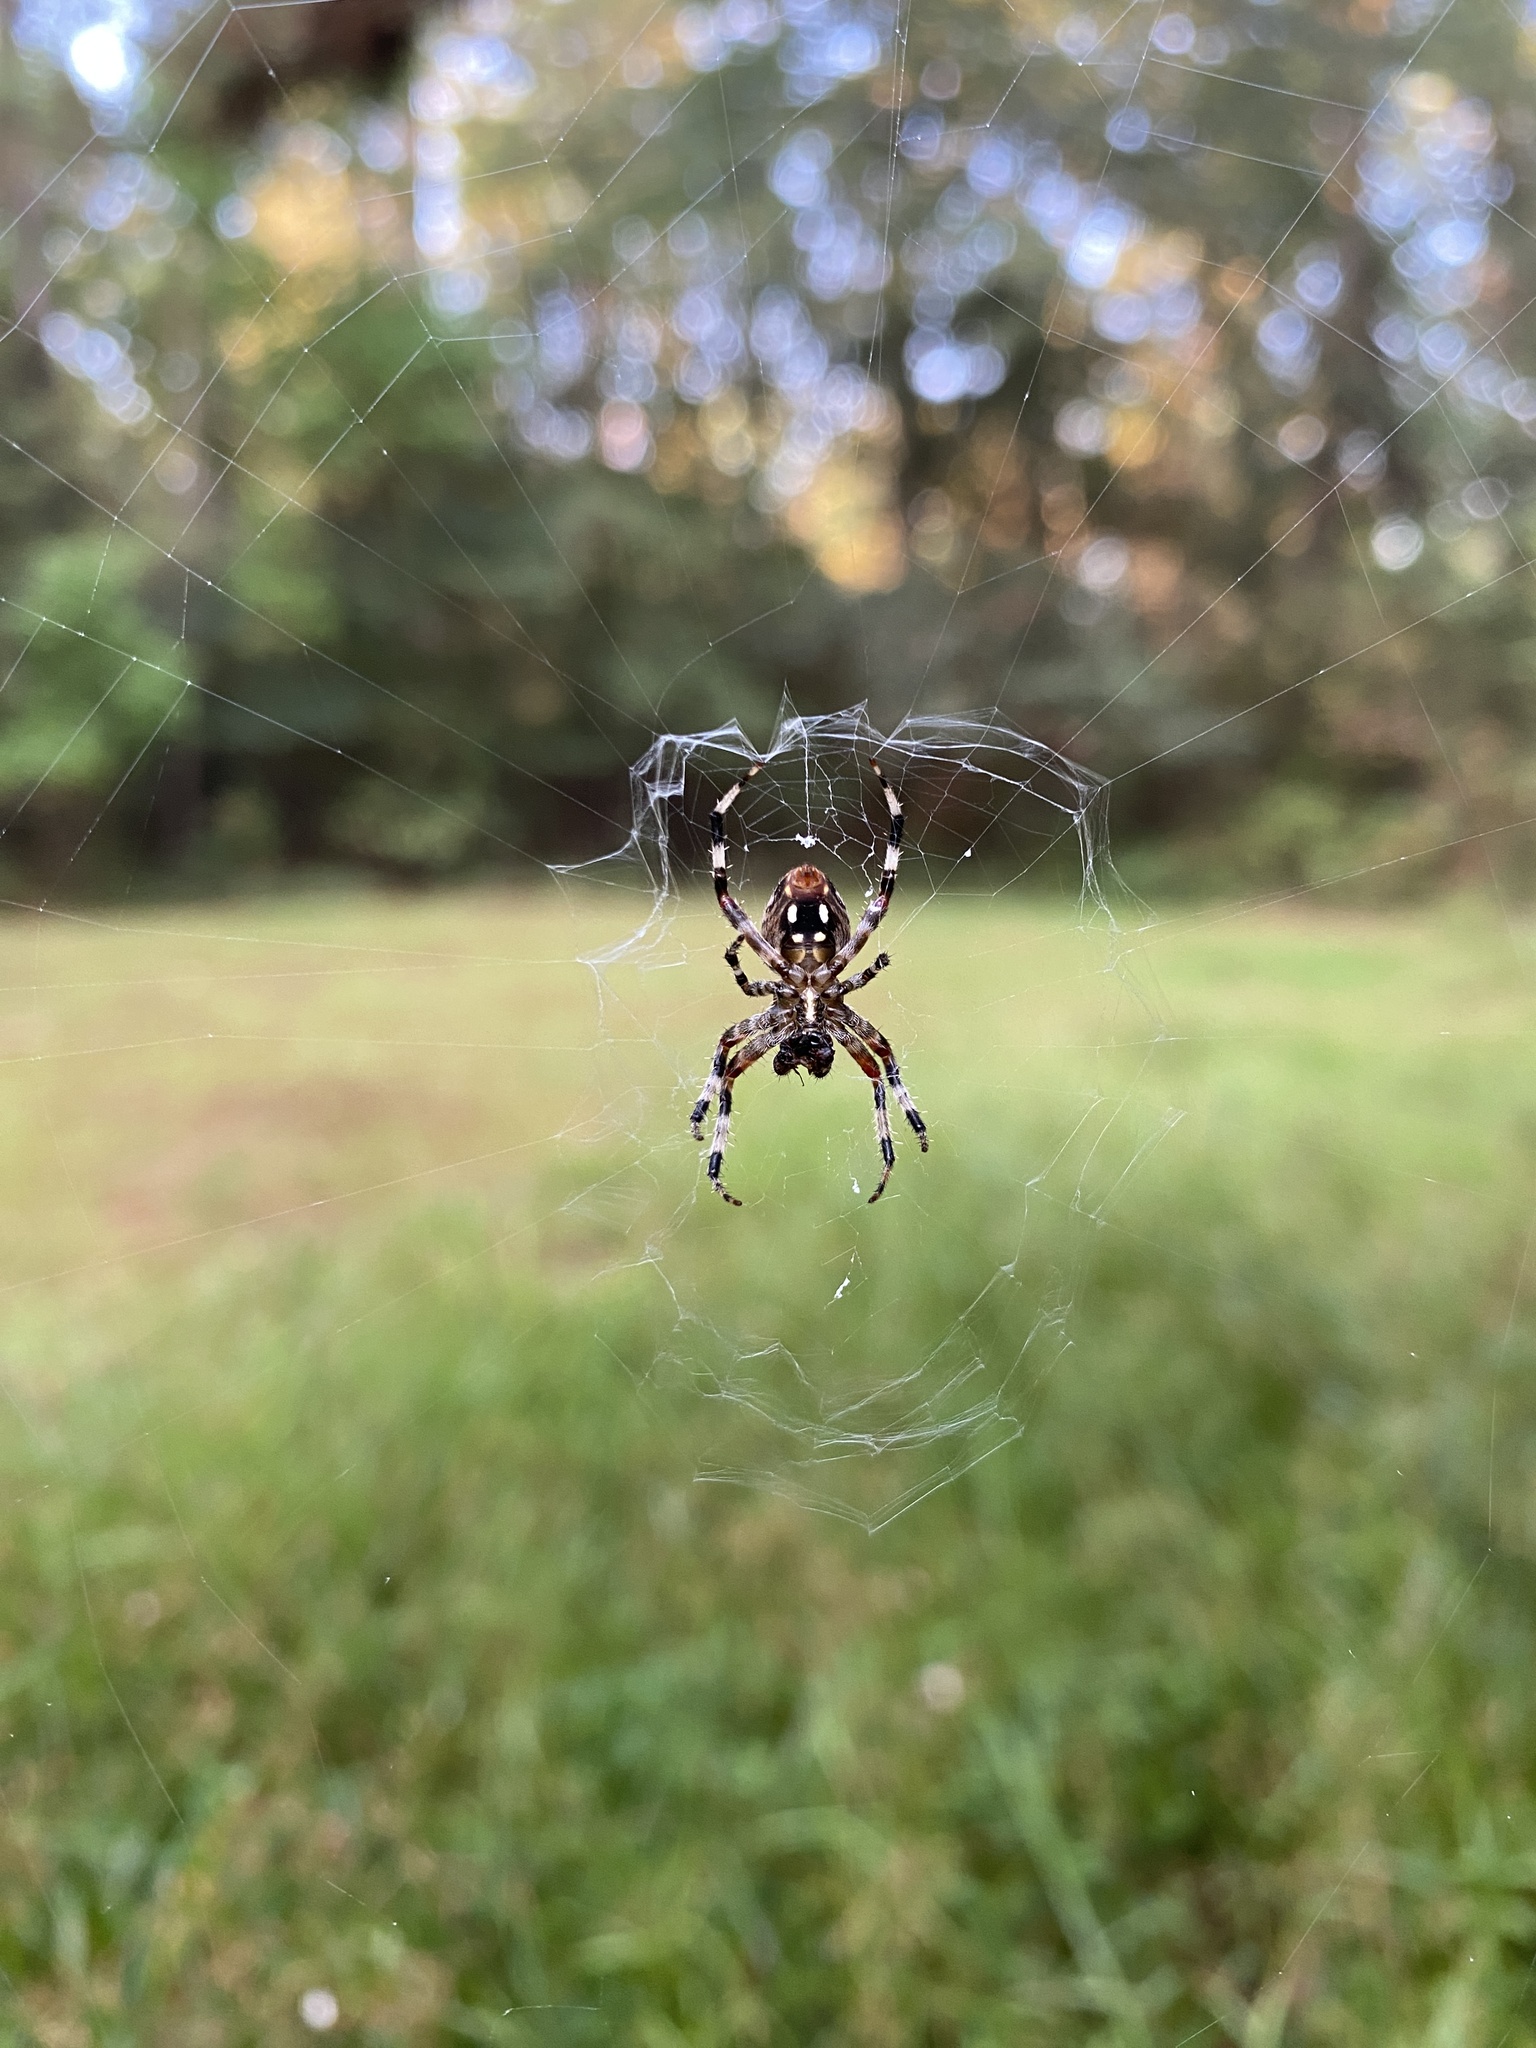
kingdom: Animalia
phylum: Arthropoda
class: Arachnida
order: Araneae
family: Araneidae
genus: Neoscona
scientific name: Neoscona domiciliorum
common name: Red-femured spotted orbweaver
